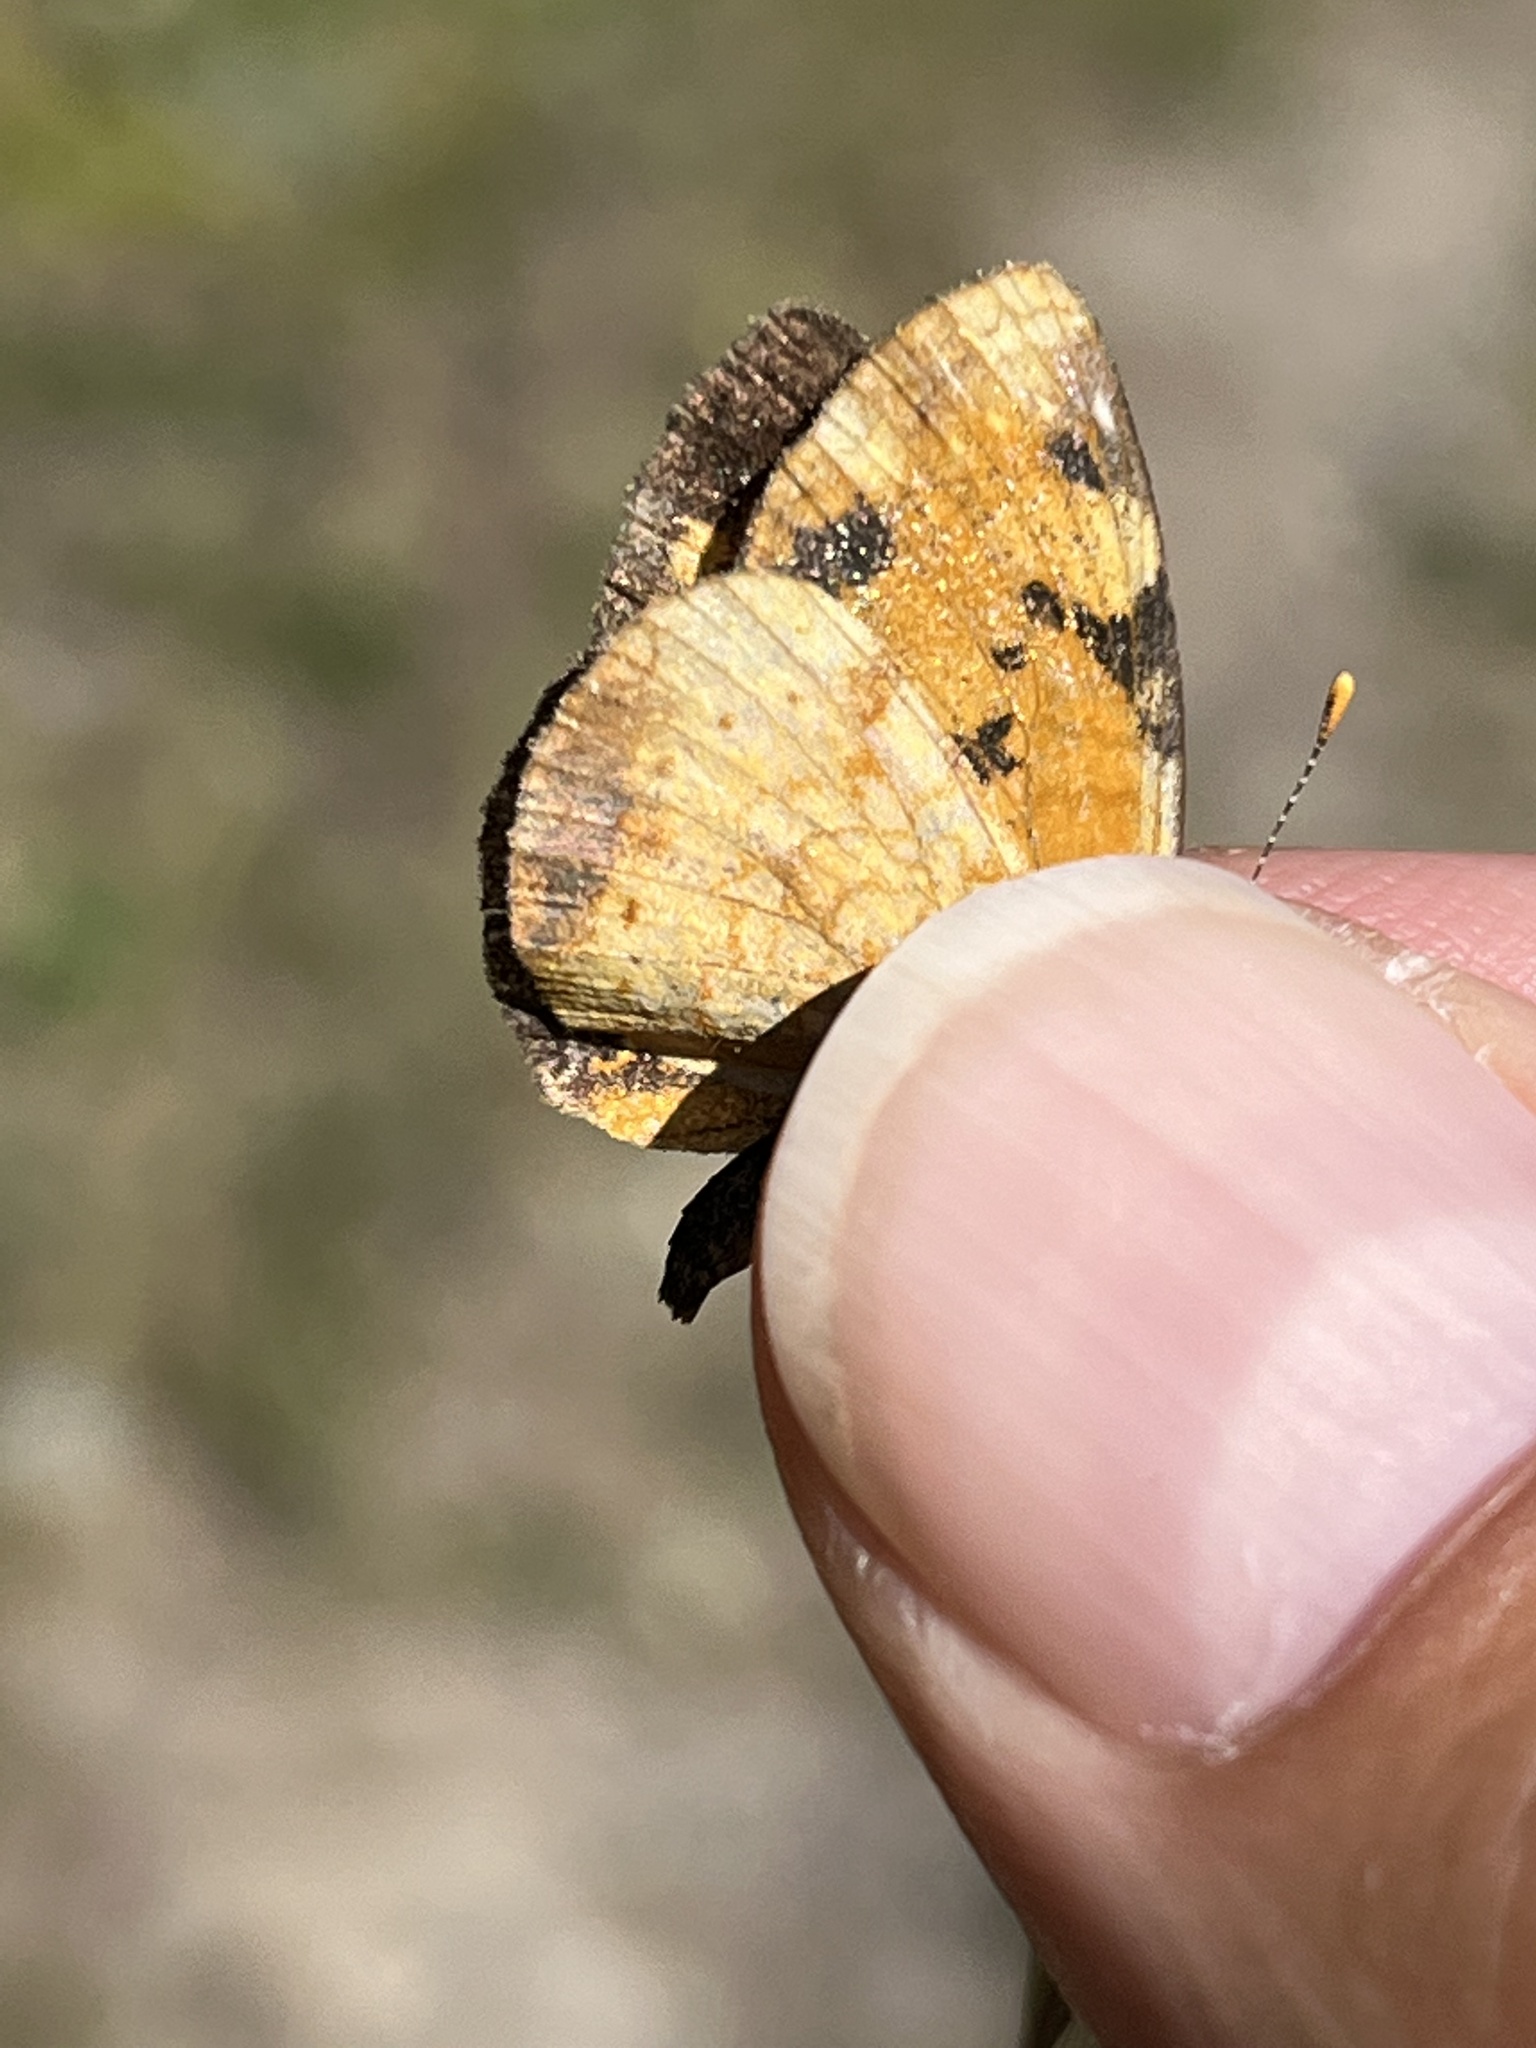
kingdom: Animalia
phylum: Arthropoda
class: Insecta
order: Lepidoptera
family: Nymphalidae
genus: Phyciodes
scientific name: Phyciodes tharos
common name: Pearl crescent
